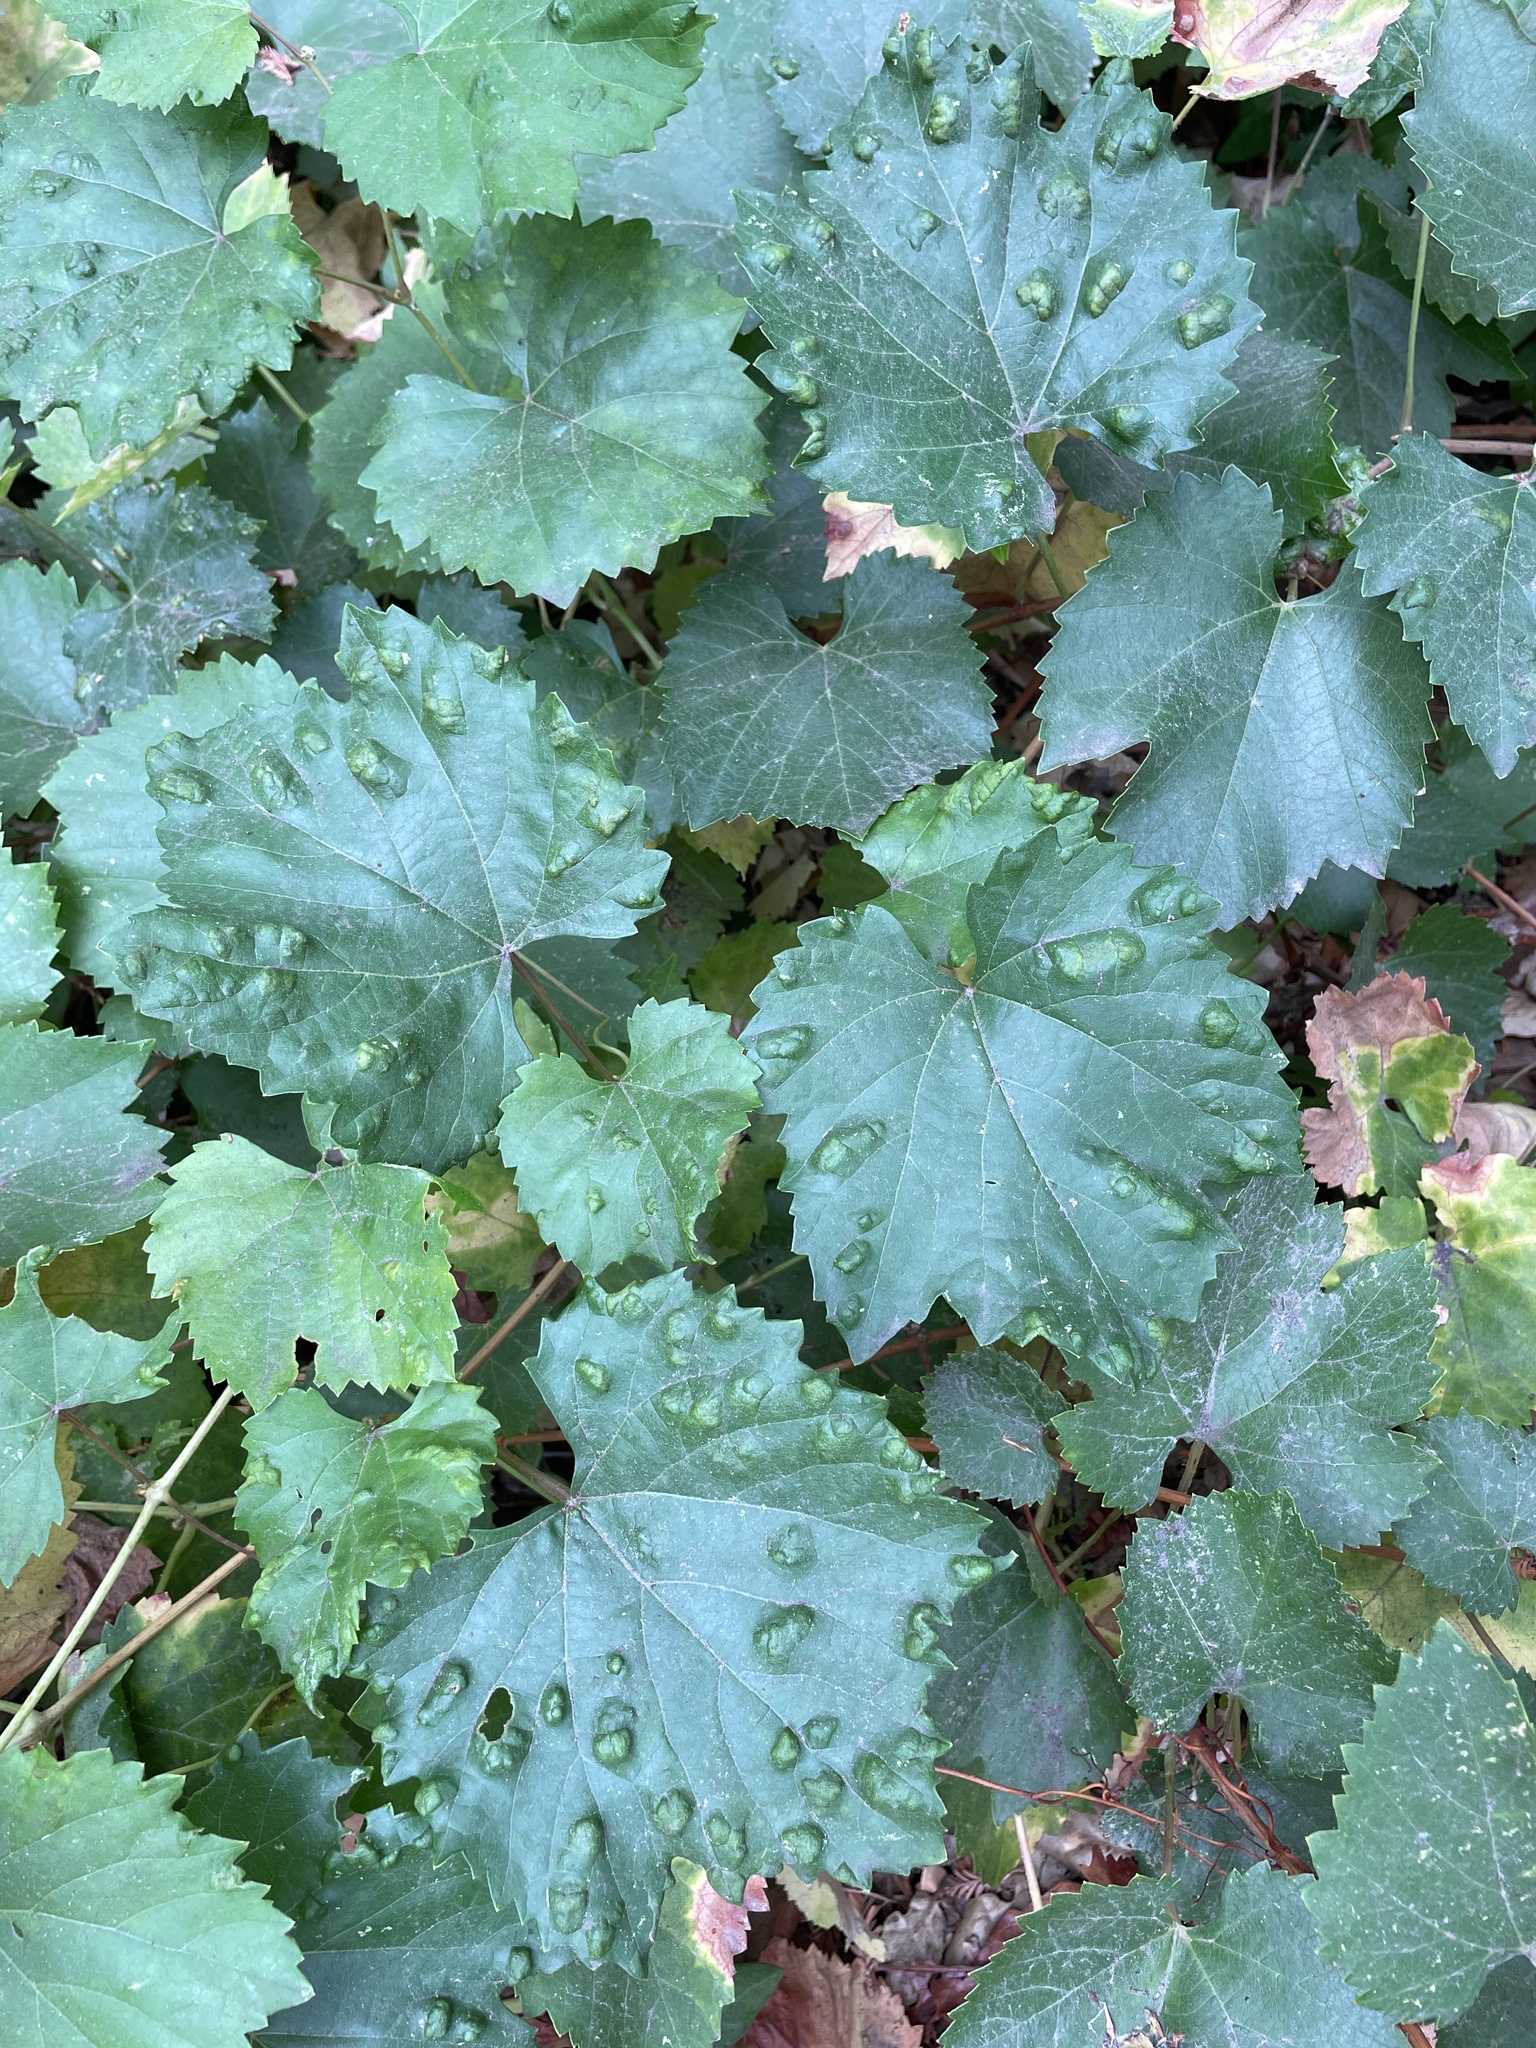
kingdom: Animalia
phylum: Arthropoda
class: Arachnida
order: Trombidiformes
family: Eriophyidae
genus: Colomerus
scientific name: Colomerus vitis
